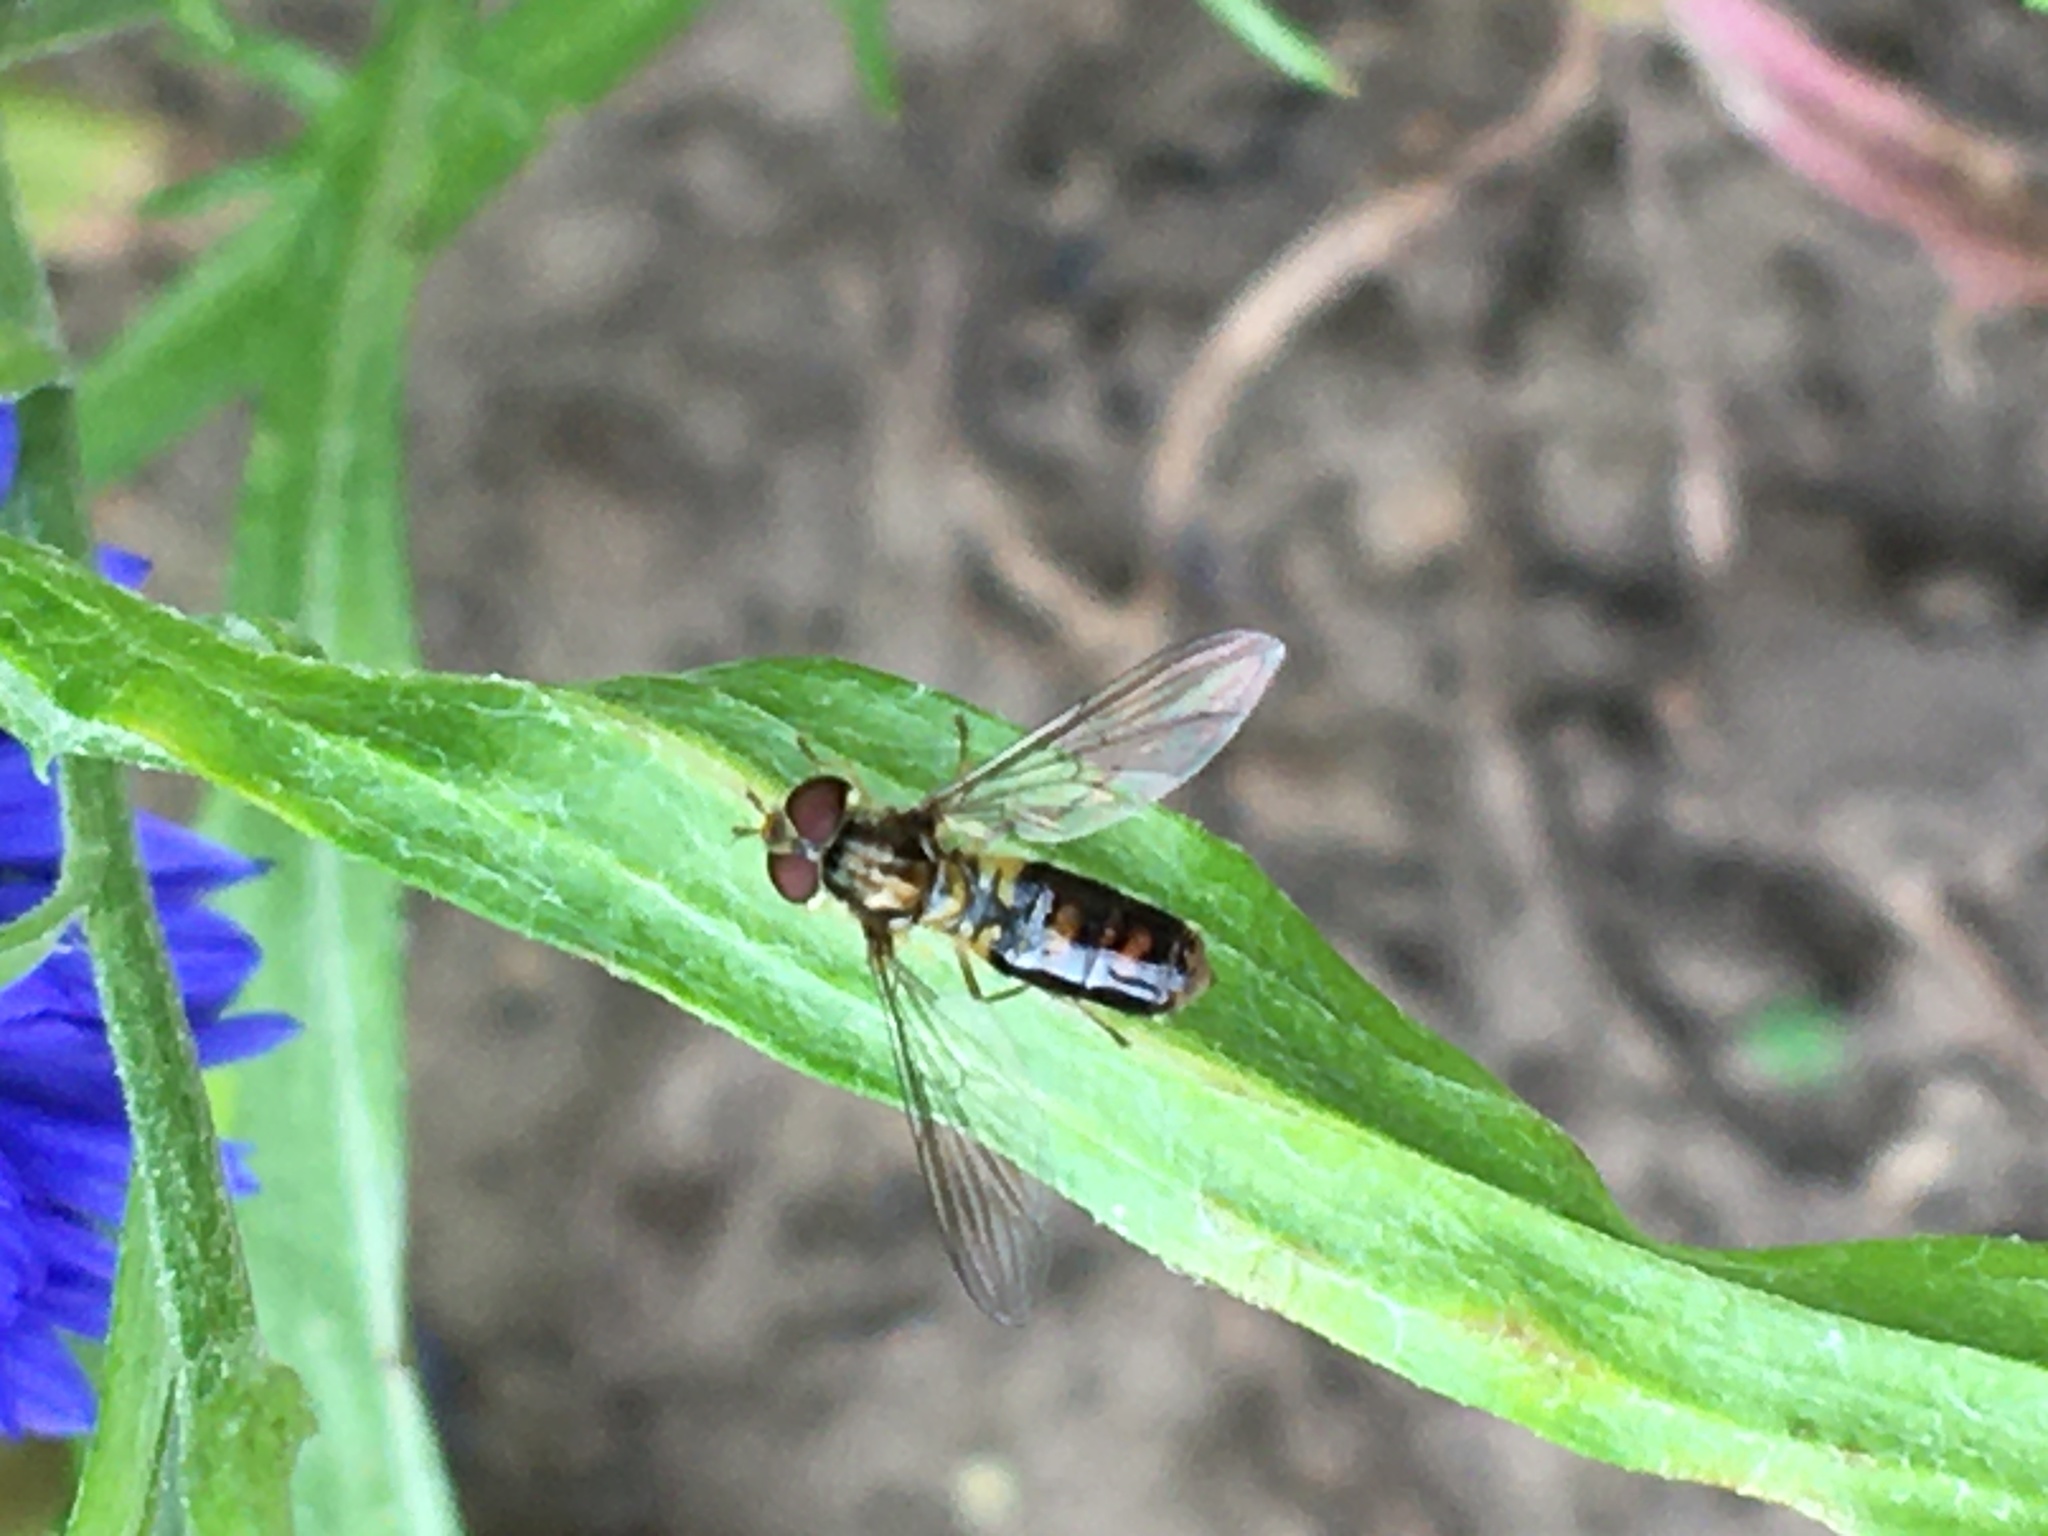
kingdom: Animalia
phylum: Arthropoda
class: Insecta
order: Diptera
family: Syrphidae
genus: Episyrphus
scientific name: Episyrphus balteatus
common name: Marmalade hoverfly
